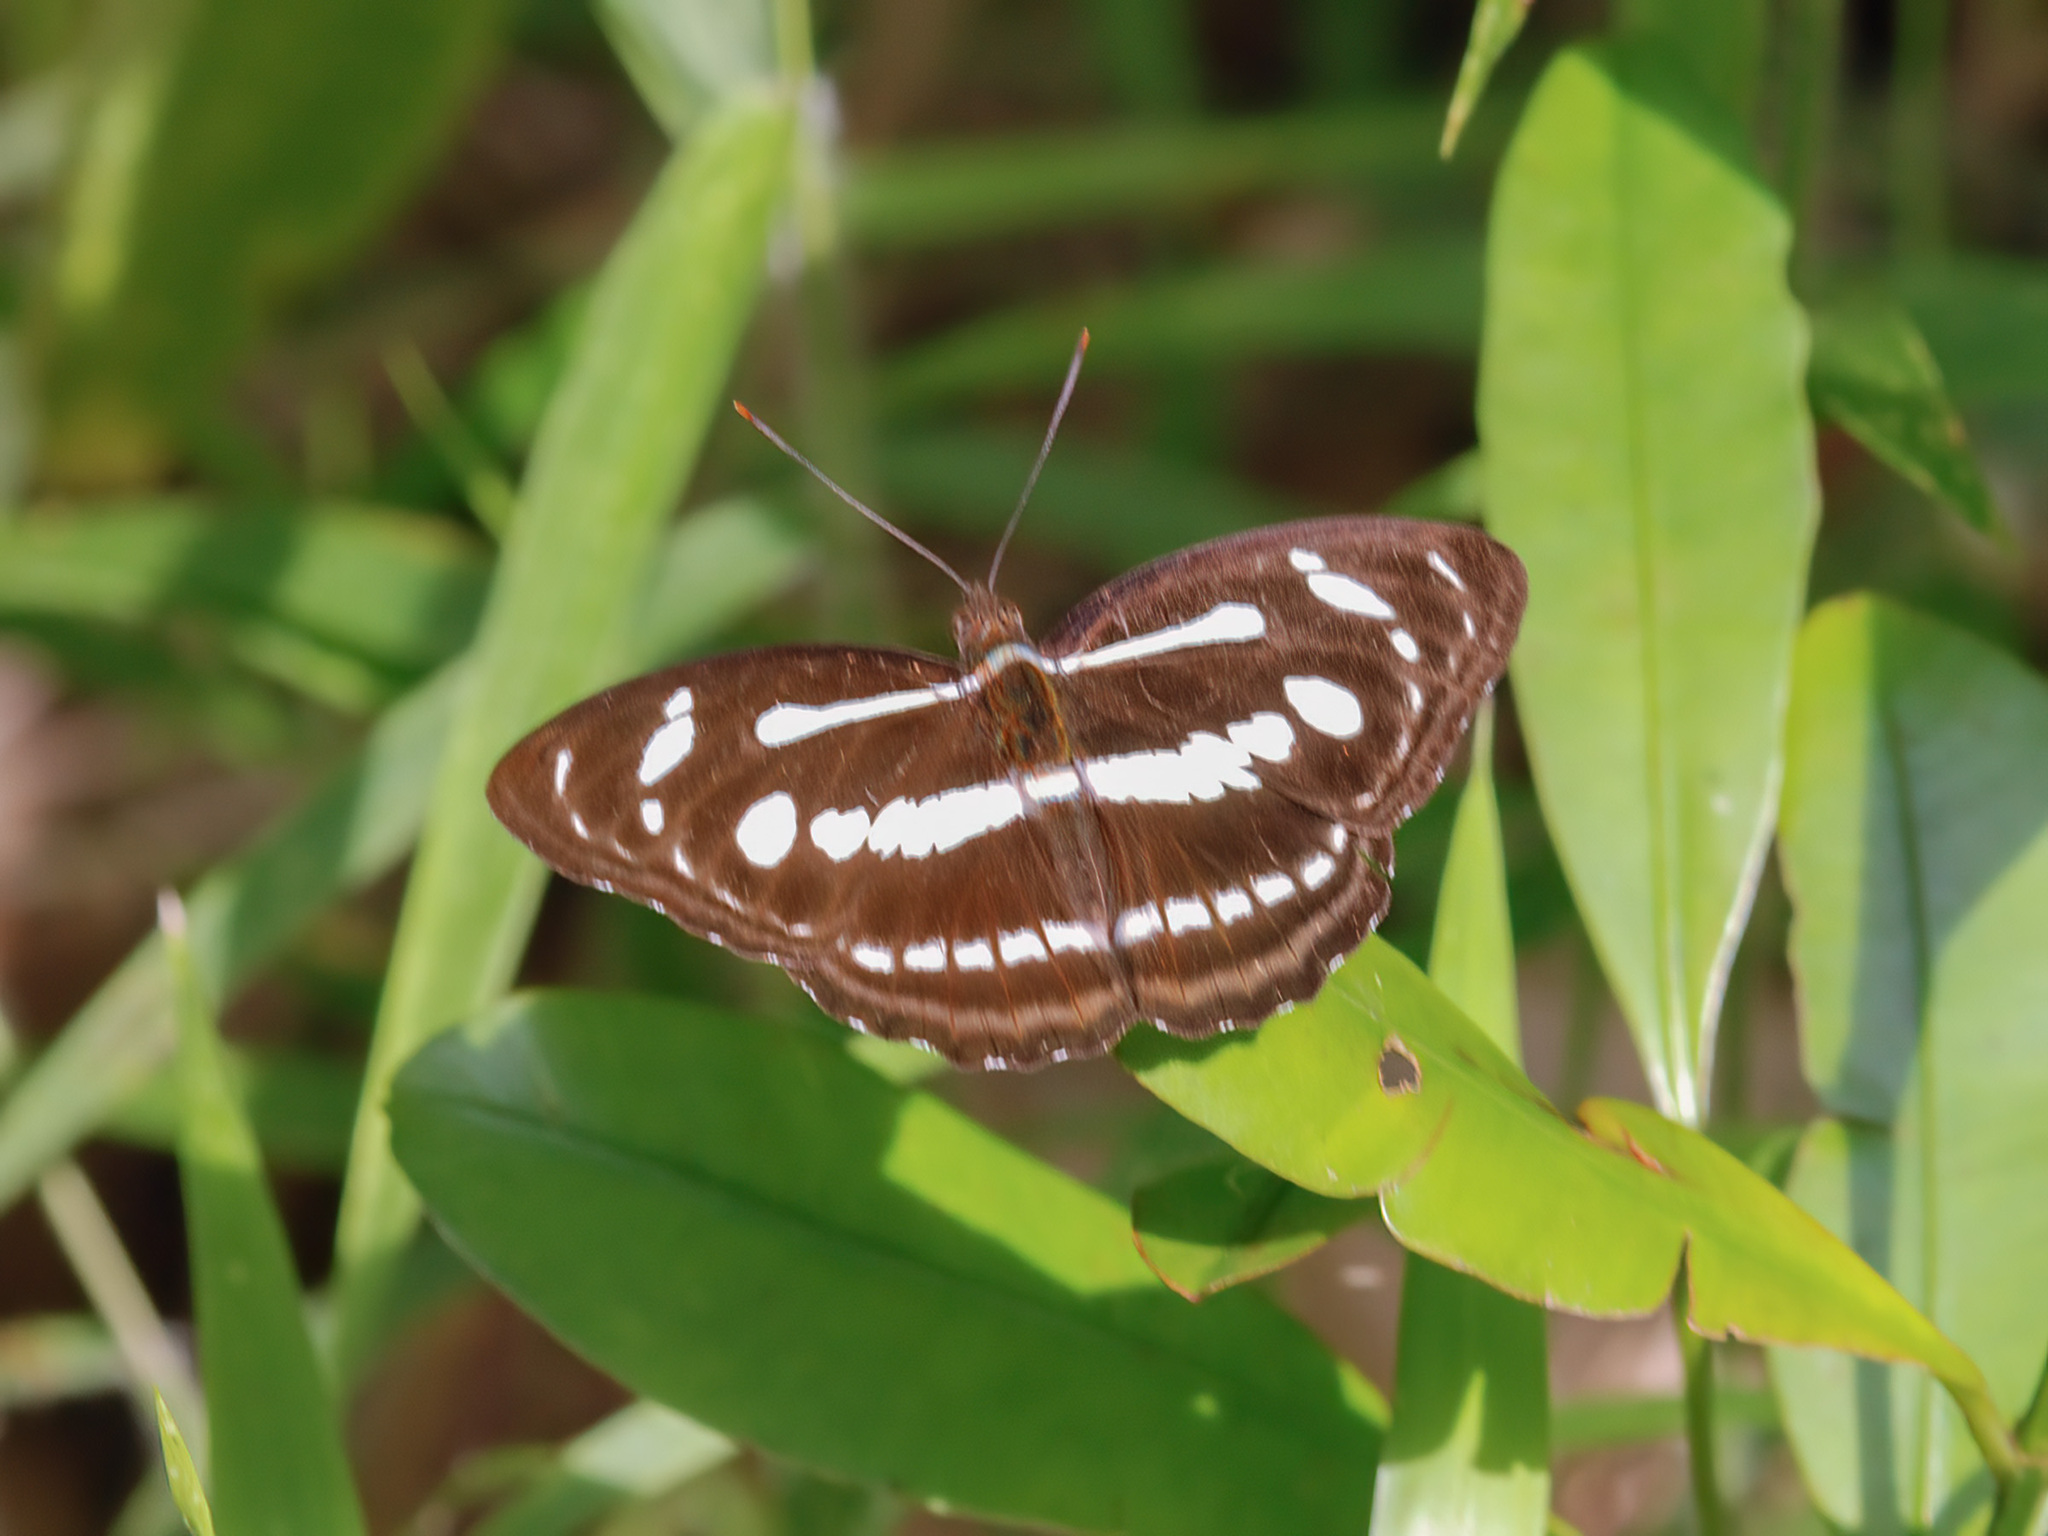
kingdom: Animalia
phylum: Arthropoda
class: Insecta
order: Lepidoptera
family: Nymphalidae
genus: Parathyma
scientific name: Parathyma pravara
